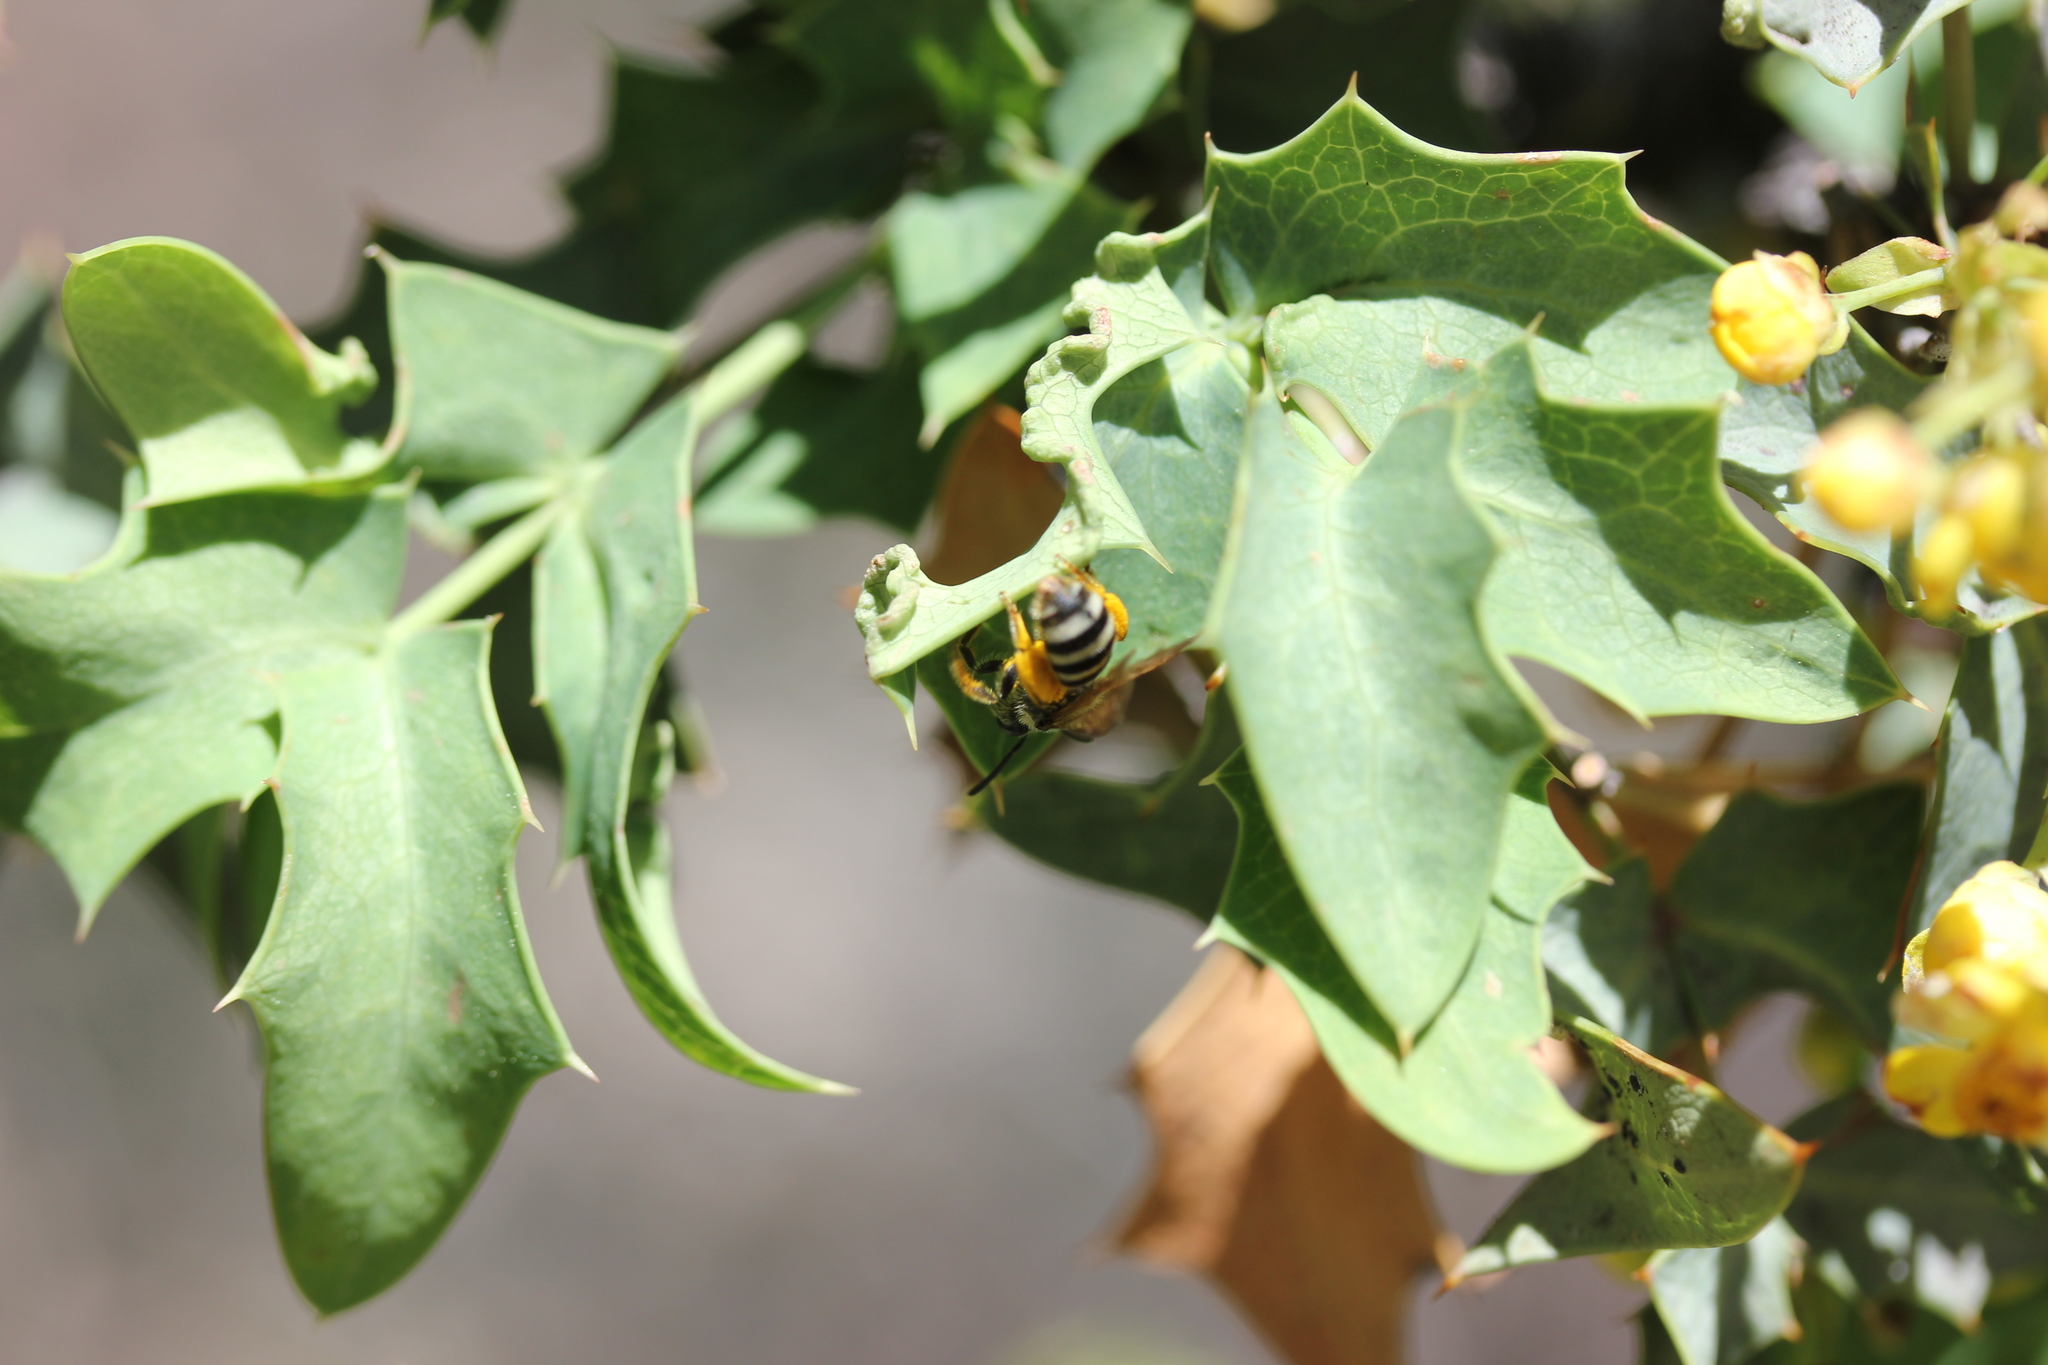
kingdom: Plantae
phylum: Tracheophyta
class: Magnoliopsida
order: Ranunculales
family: Berberidaceae
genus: Alloberberis
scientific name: Alloberberis fremontii
